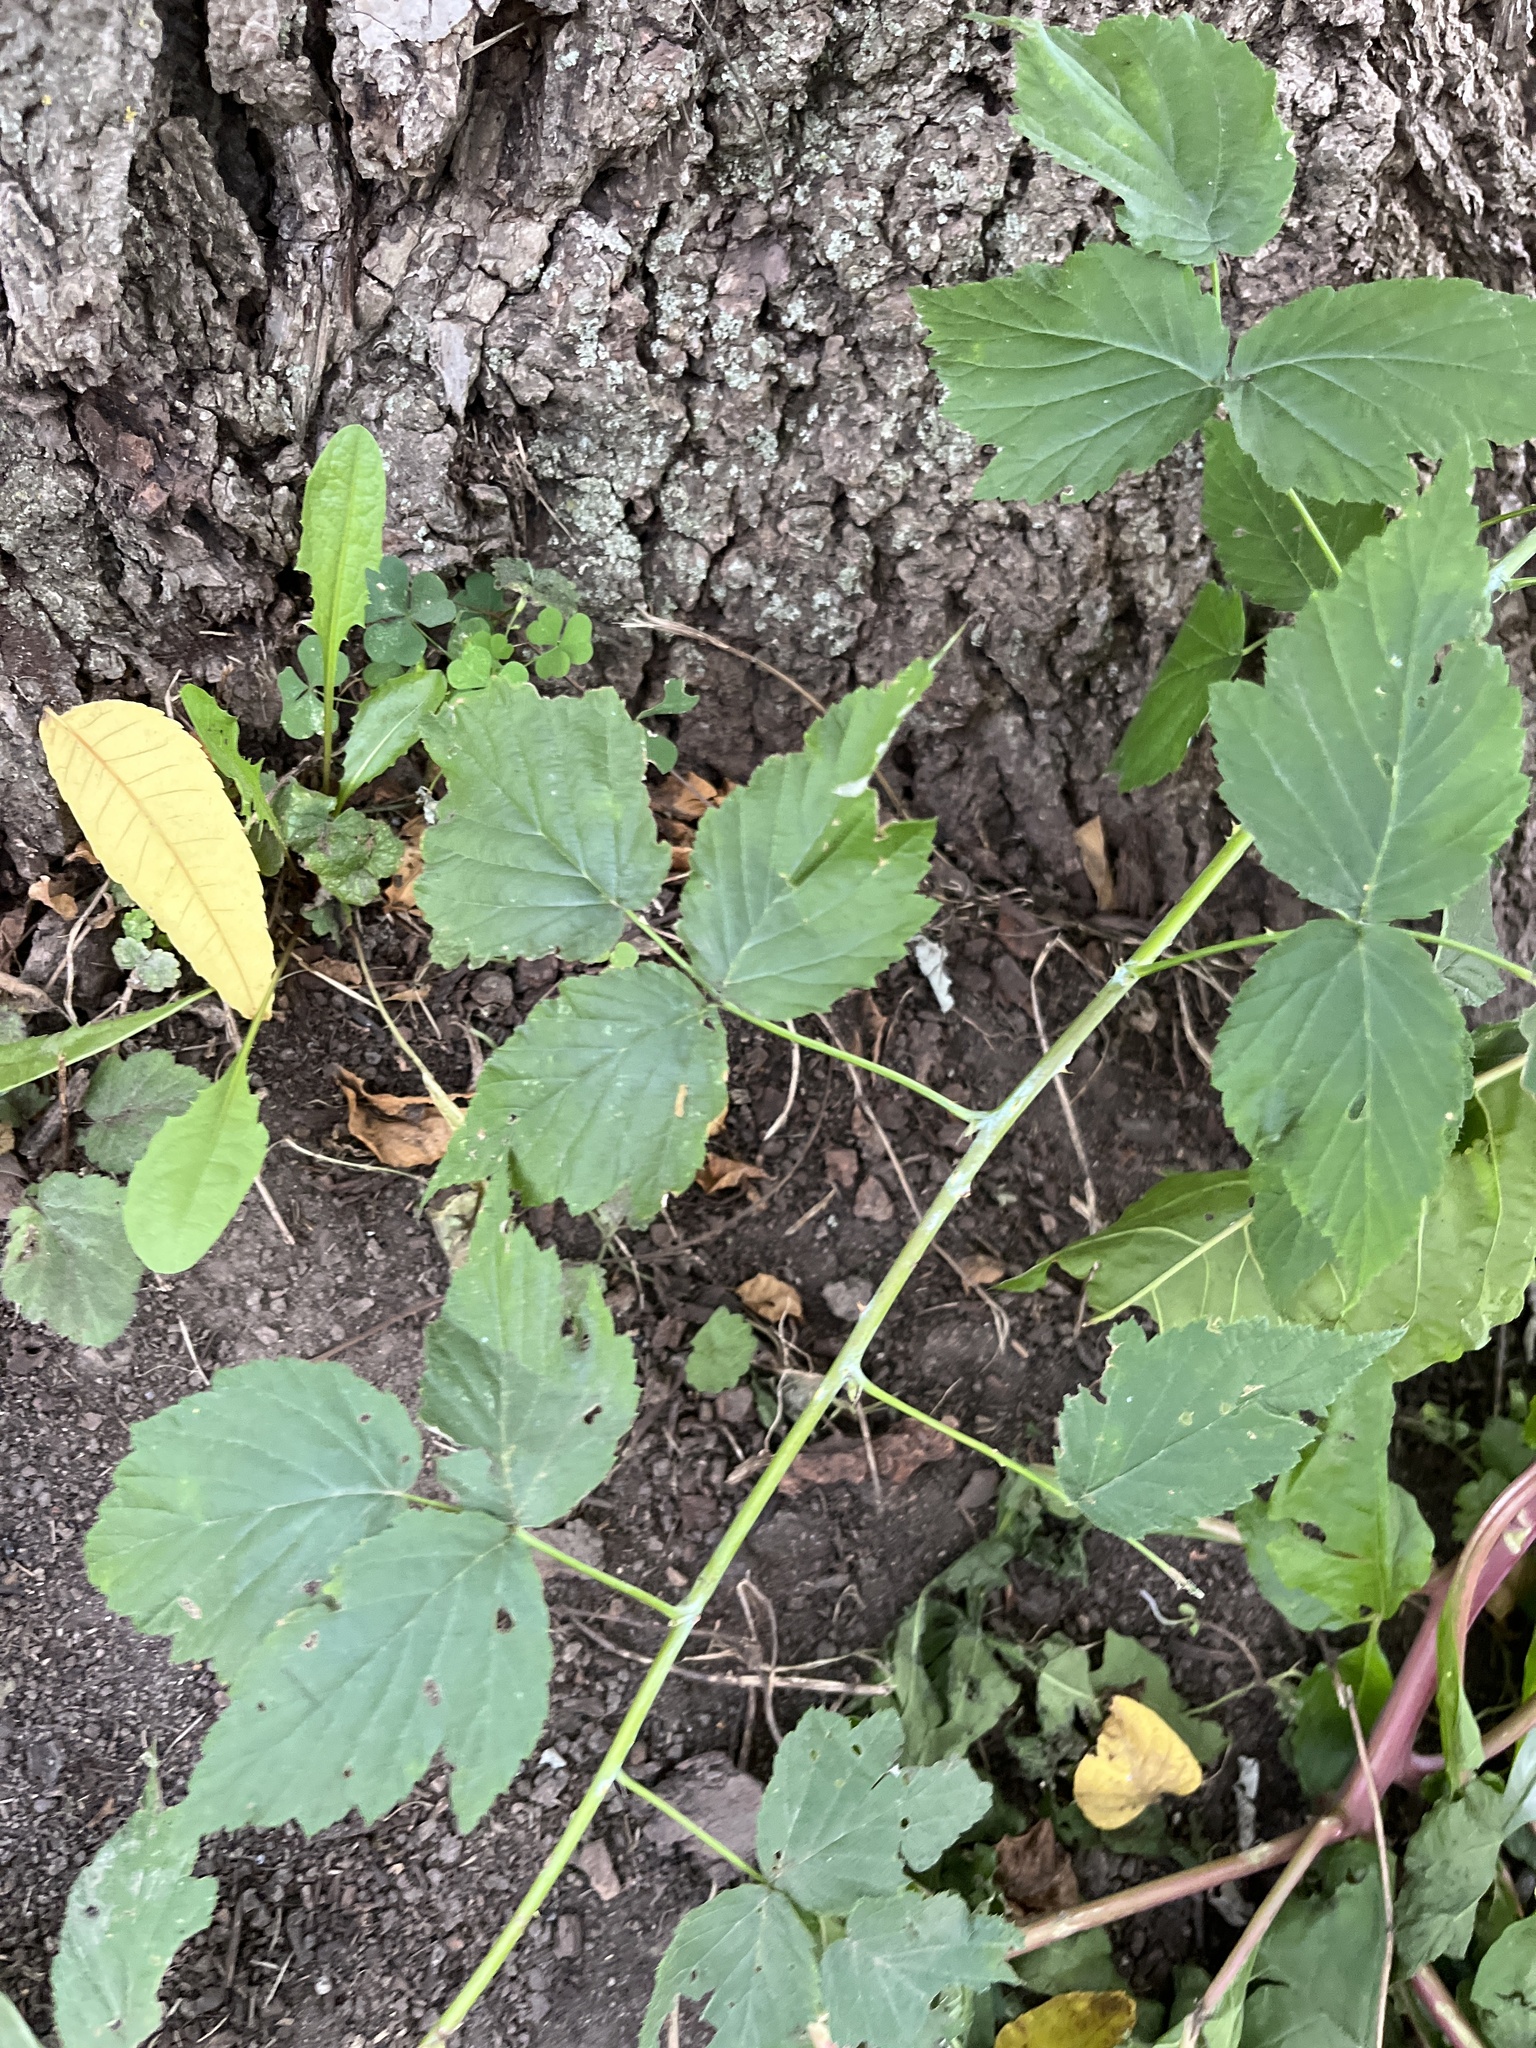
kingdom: Plantae
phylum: Tracheophyta
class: Magnoliopsida
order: Rosales
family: Rosaceae
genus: Rubus
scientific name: Rubus occidentalis
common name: Black raspberry
